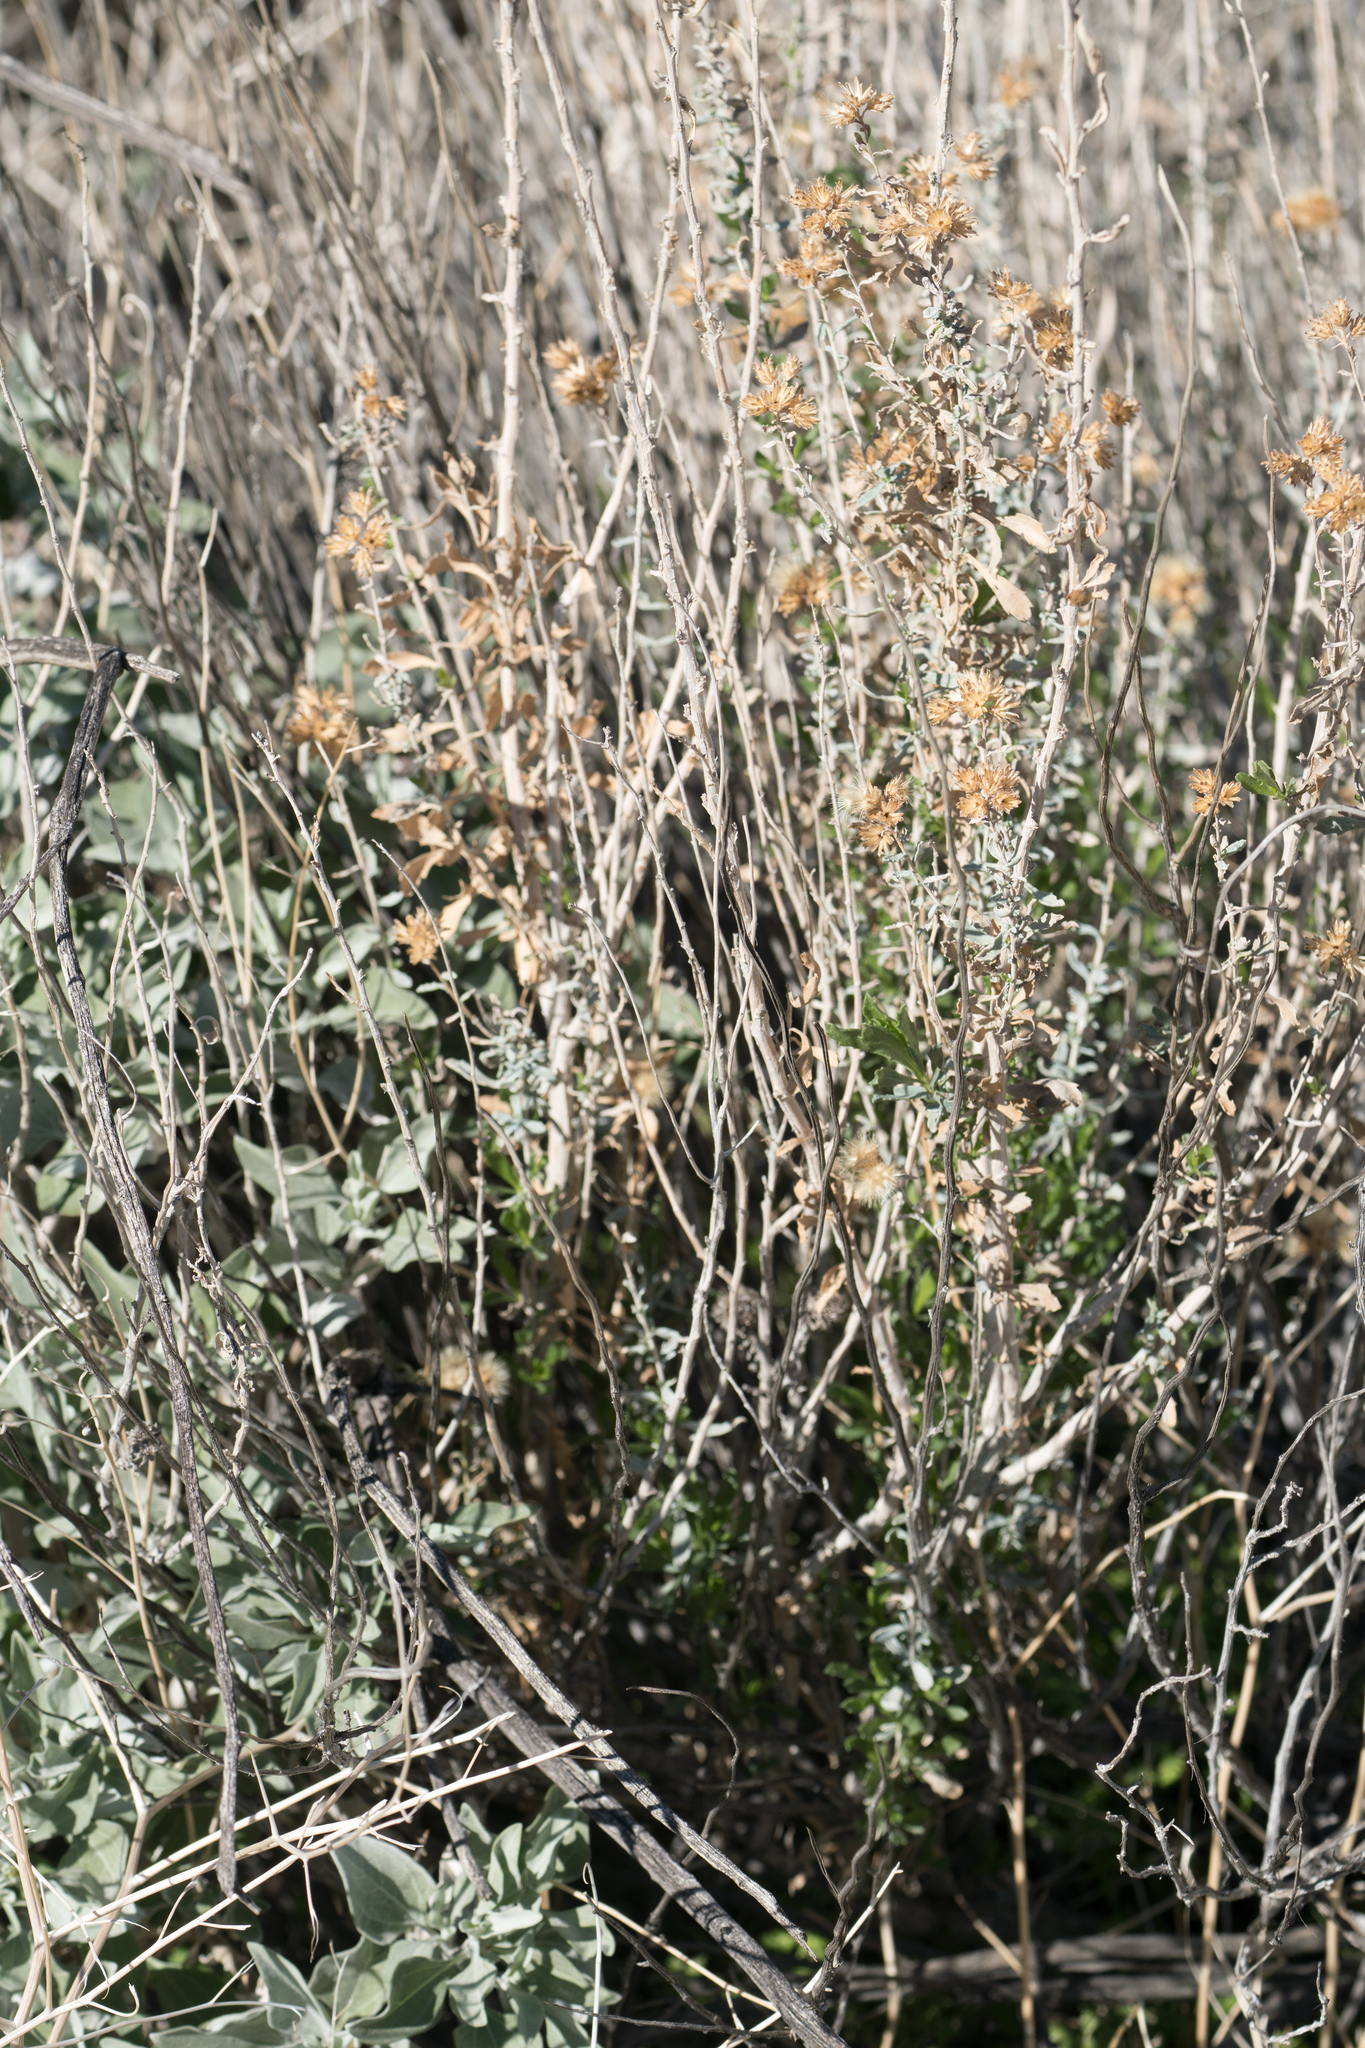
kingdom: Plantae
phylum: Tracheophyta
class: Magnoliopsida
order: Asterales
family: Asteraceae
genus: Isocoma
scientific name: Isocoma acradenia
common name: Alkali jimmyweed
